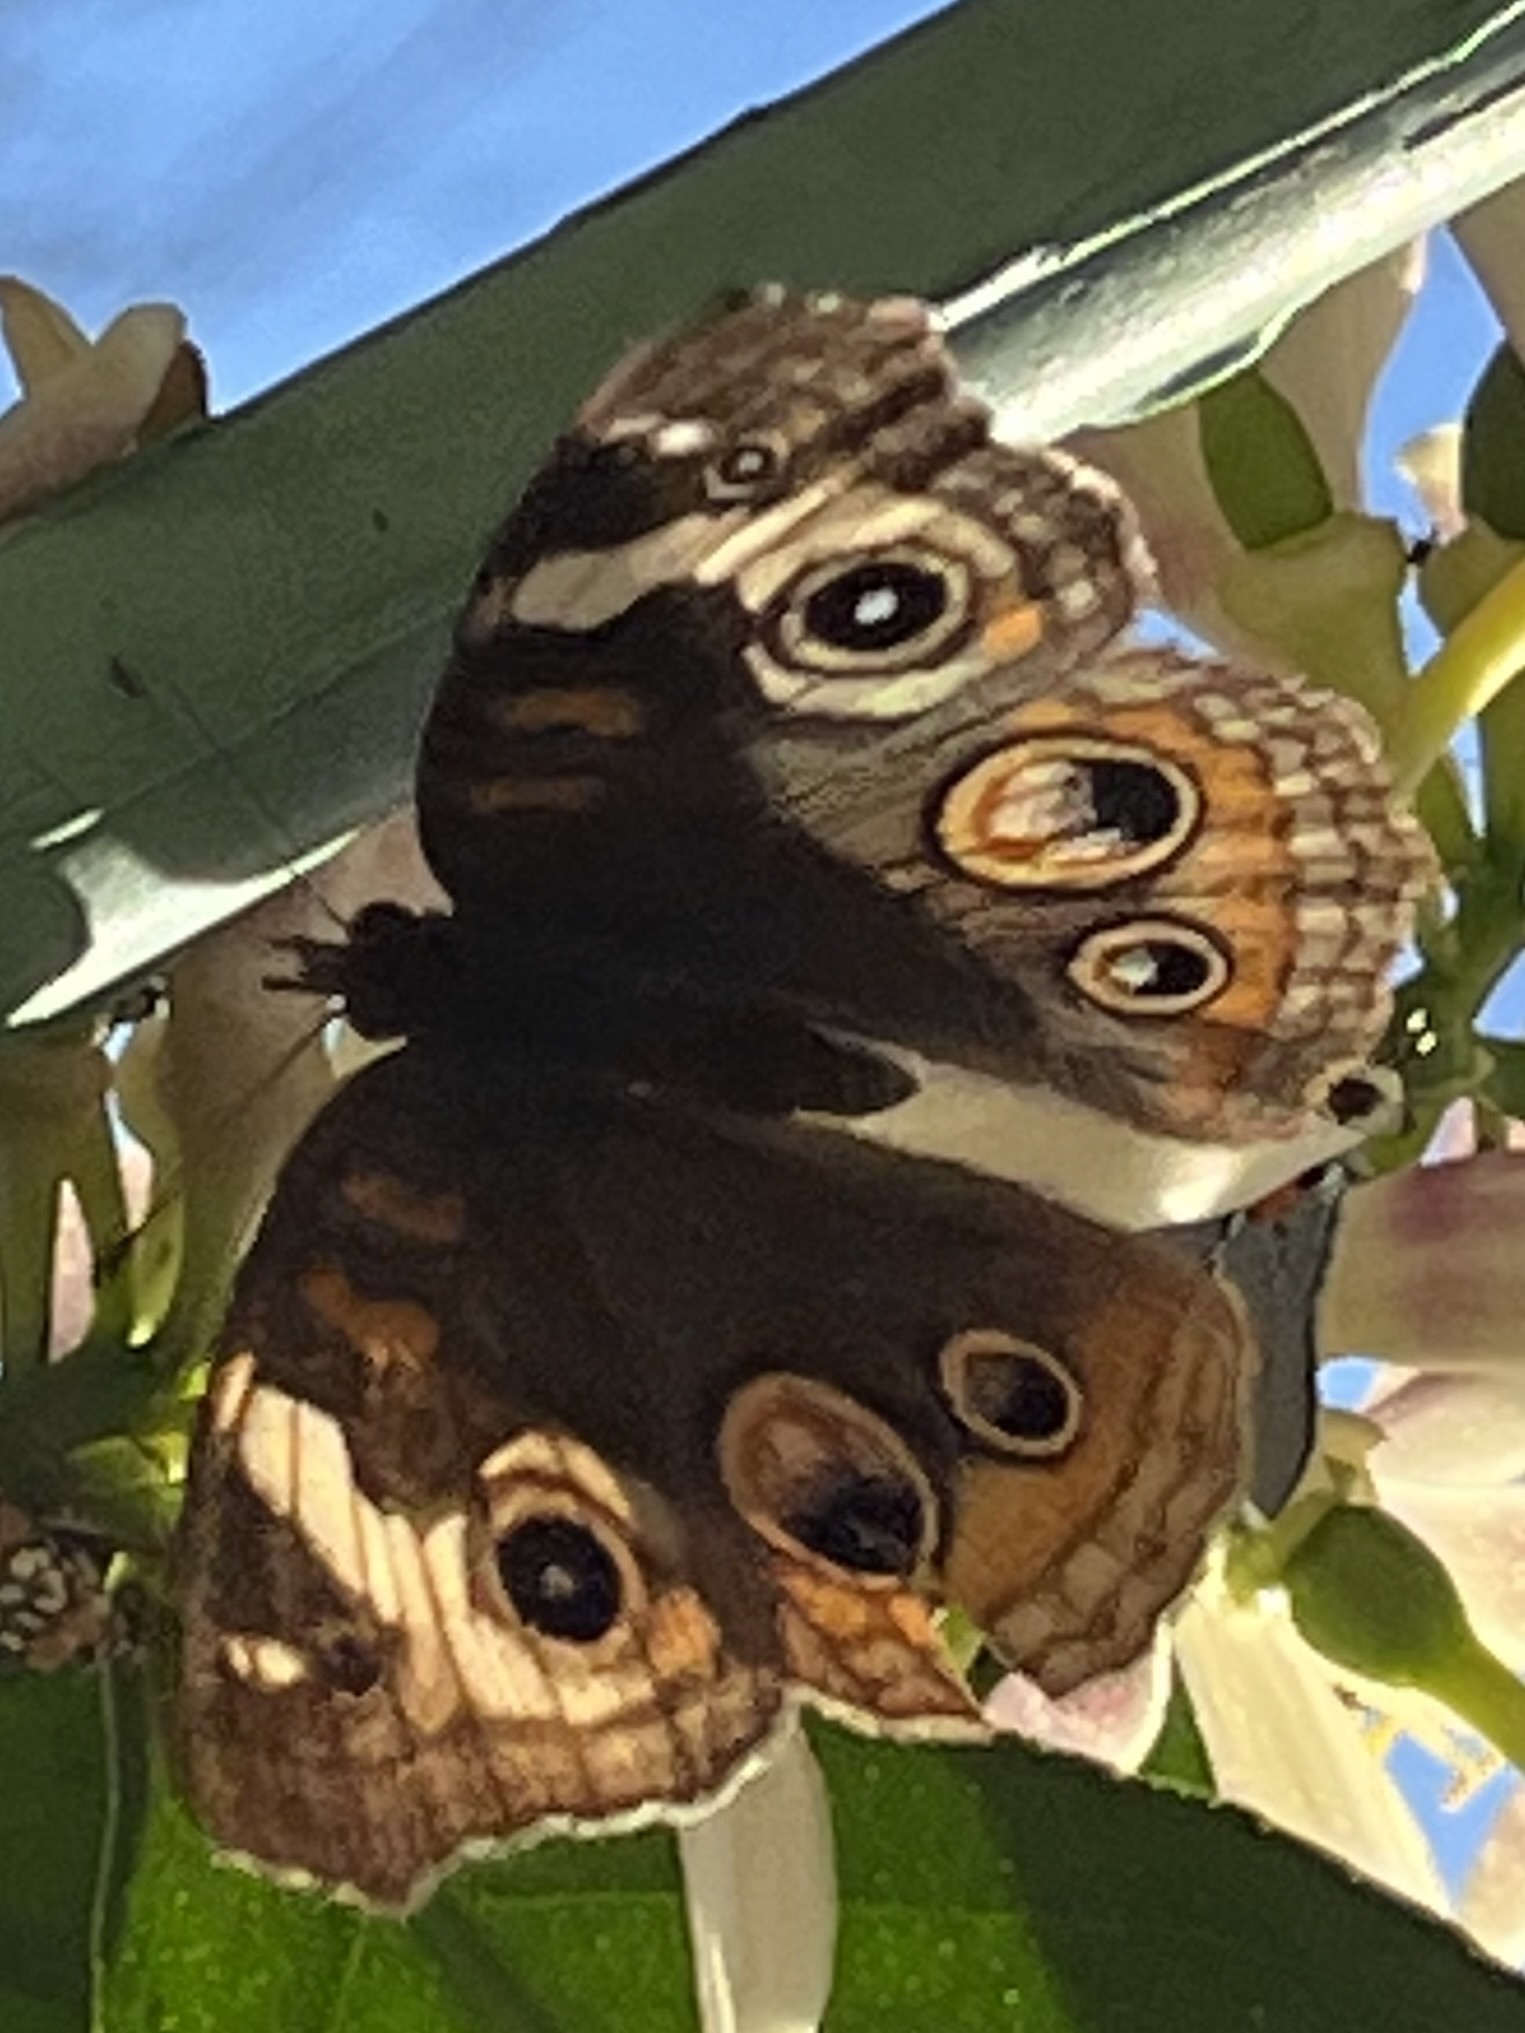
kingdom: Animalia
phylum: Arthropoda
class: Insecta
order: Lepidoptera
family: Nymphalidae
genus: Junonia
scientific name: Junonia coenia
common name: Common buckeye
